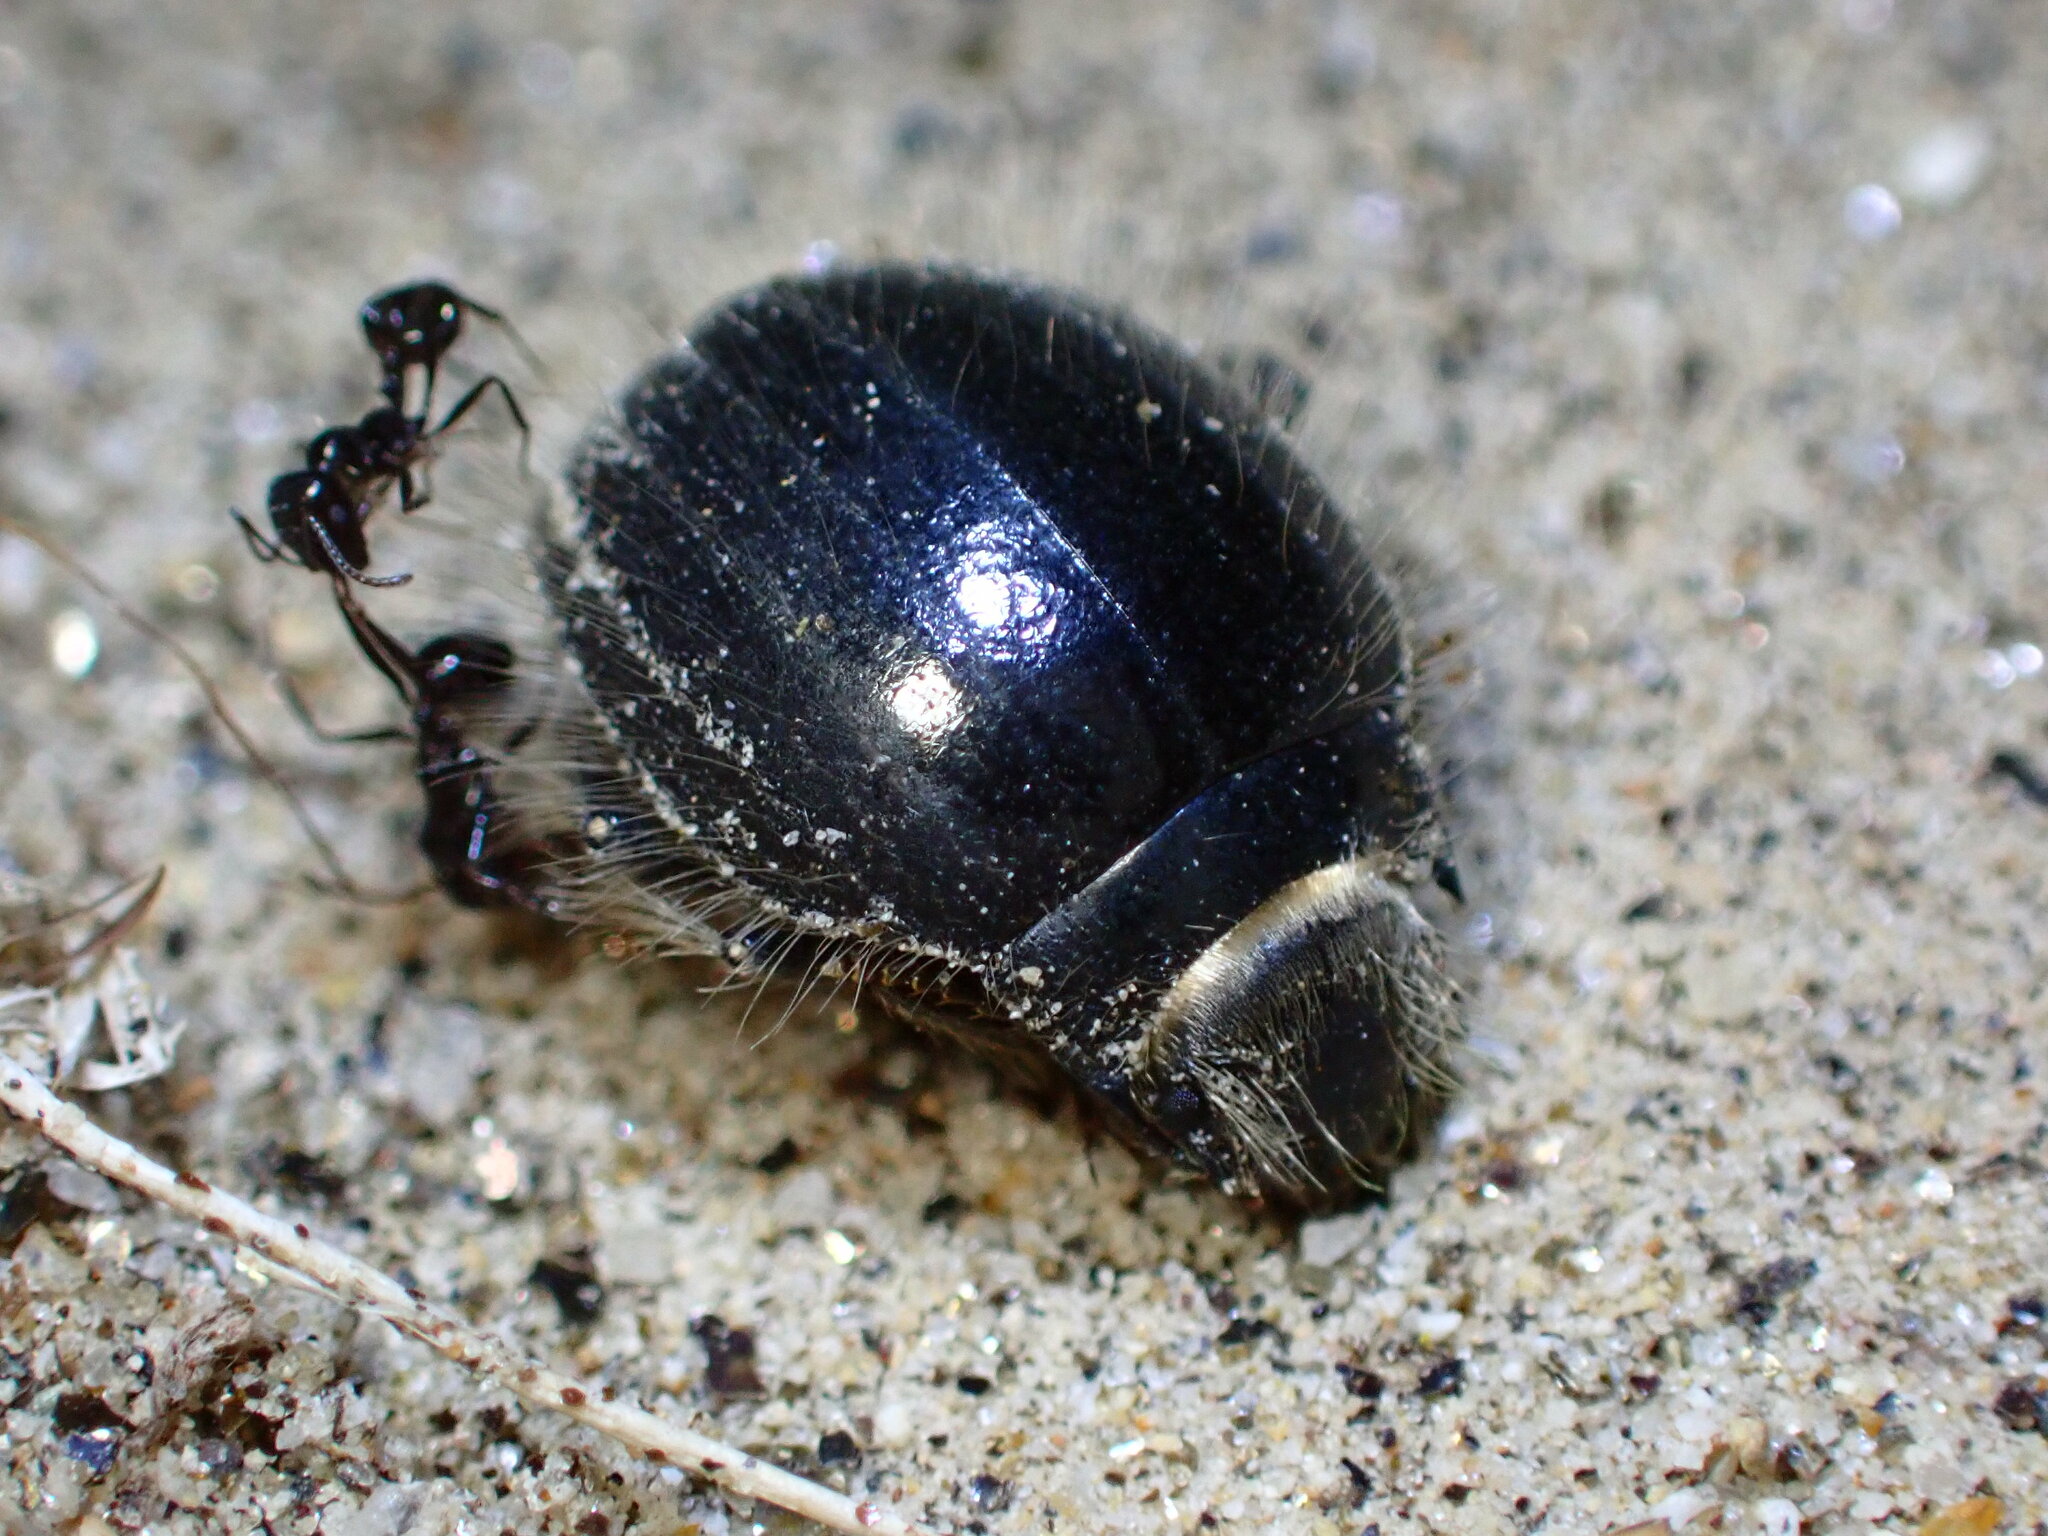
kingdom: Animalia
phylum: Arthropoda
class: Insecta
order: Coleoptera
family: Tenebrionidae
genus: Edrotes
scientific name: Edrotes ventricosus
